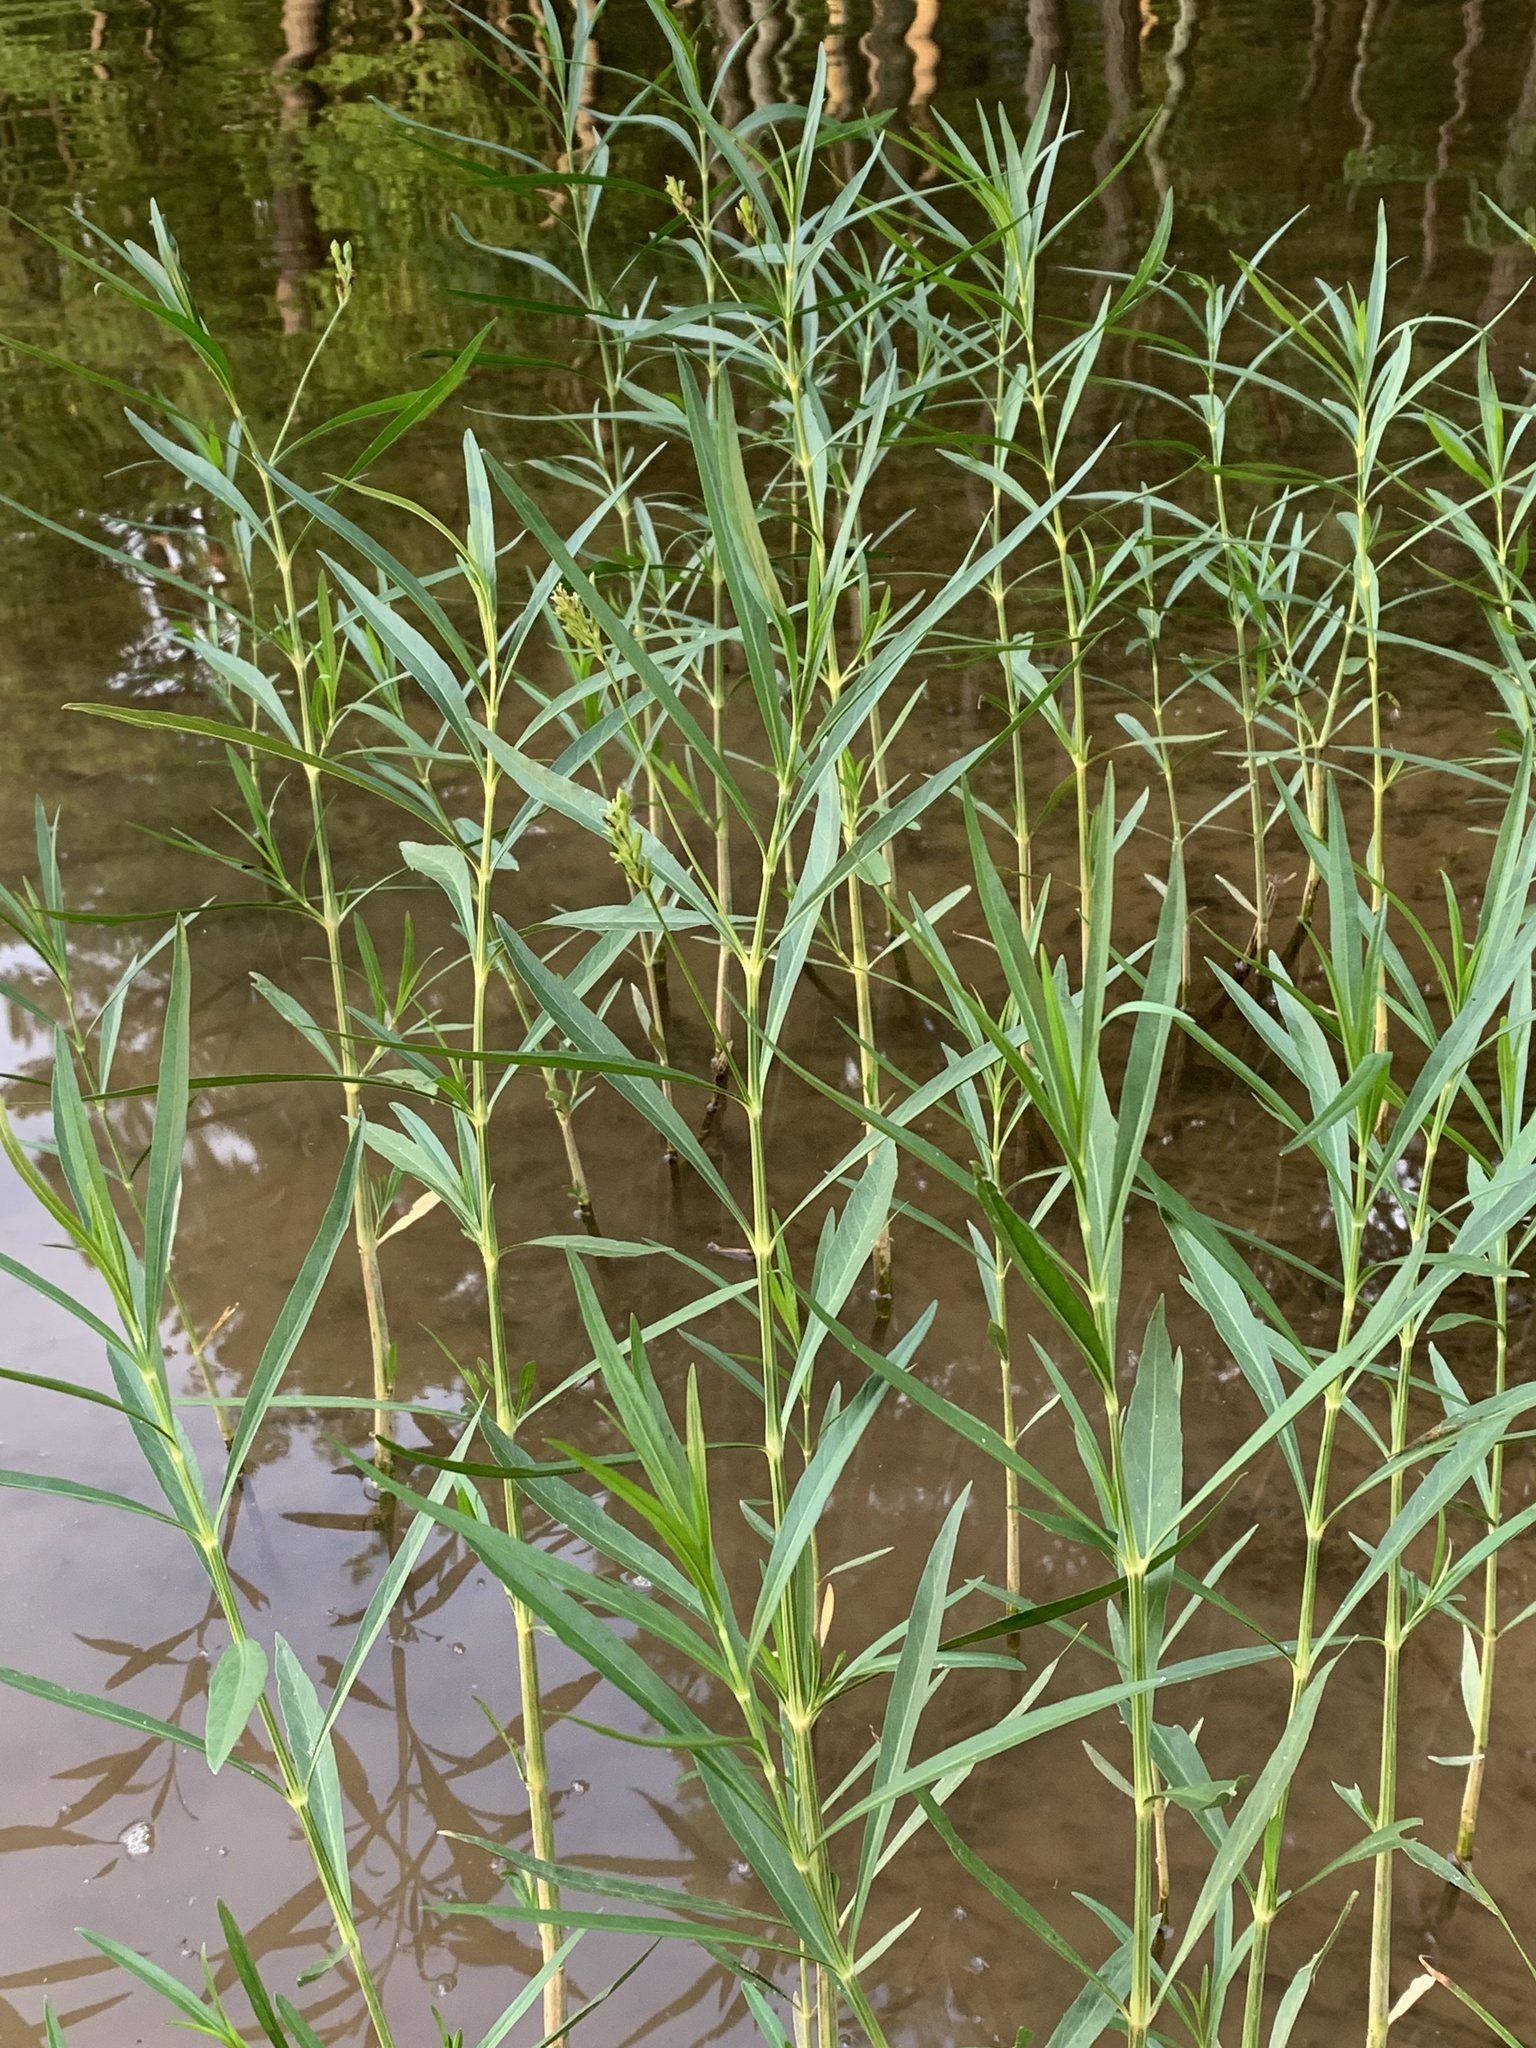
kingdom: Plantae
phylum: Tracheophyta
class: Magnoliopsida
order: Lamiales
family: Acanthaceae
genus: Dianthera
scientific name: Dianthera americana
